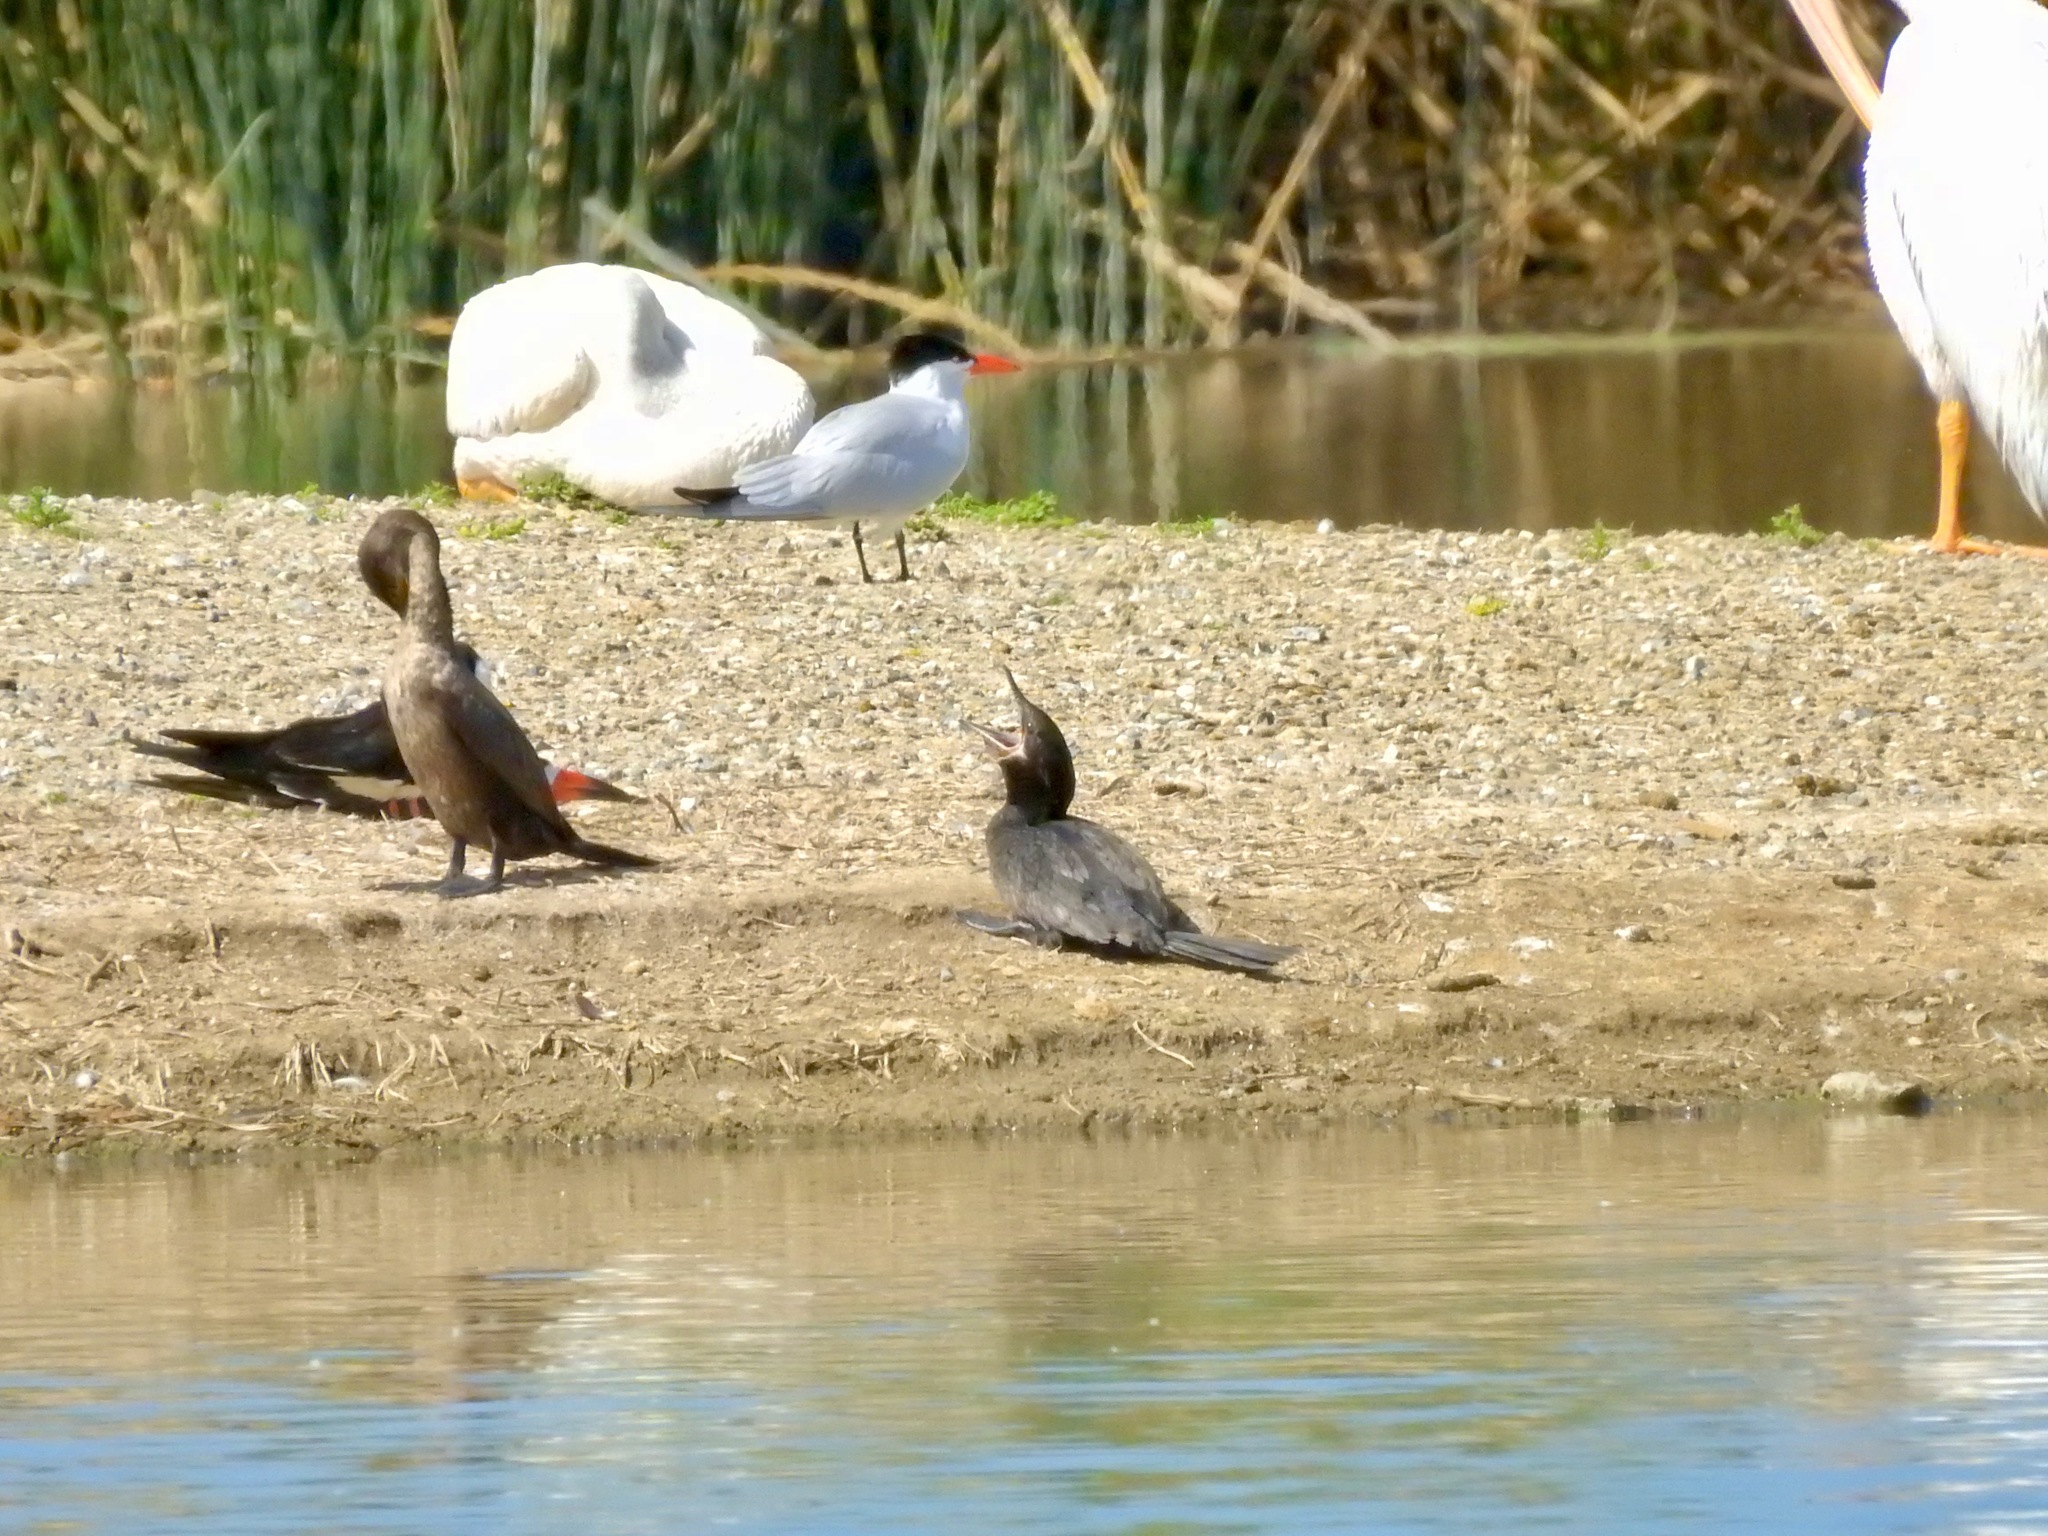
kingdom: Animalia
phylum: Chordata
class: Aves
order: Suliformes
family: Phalacrocoracidae
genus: Phalacrocorax
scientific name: Phalacrocorax brasilianus
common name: Neotropic cormorant
